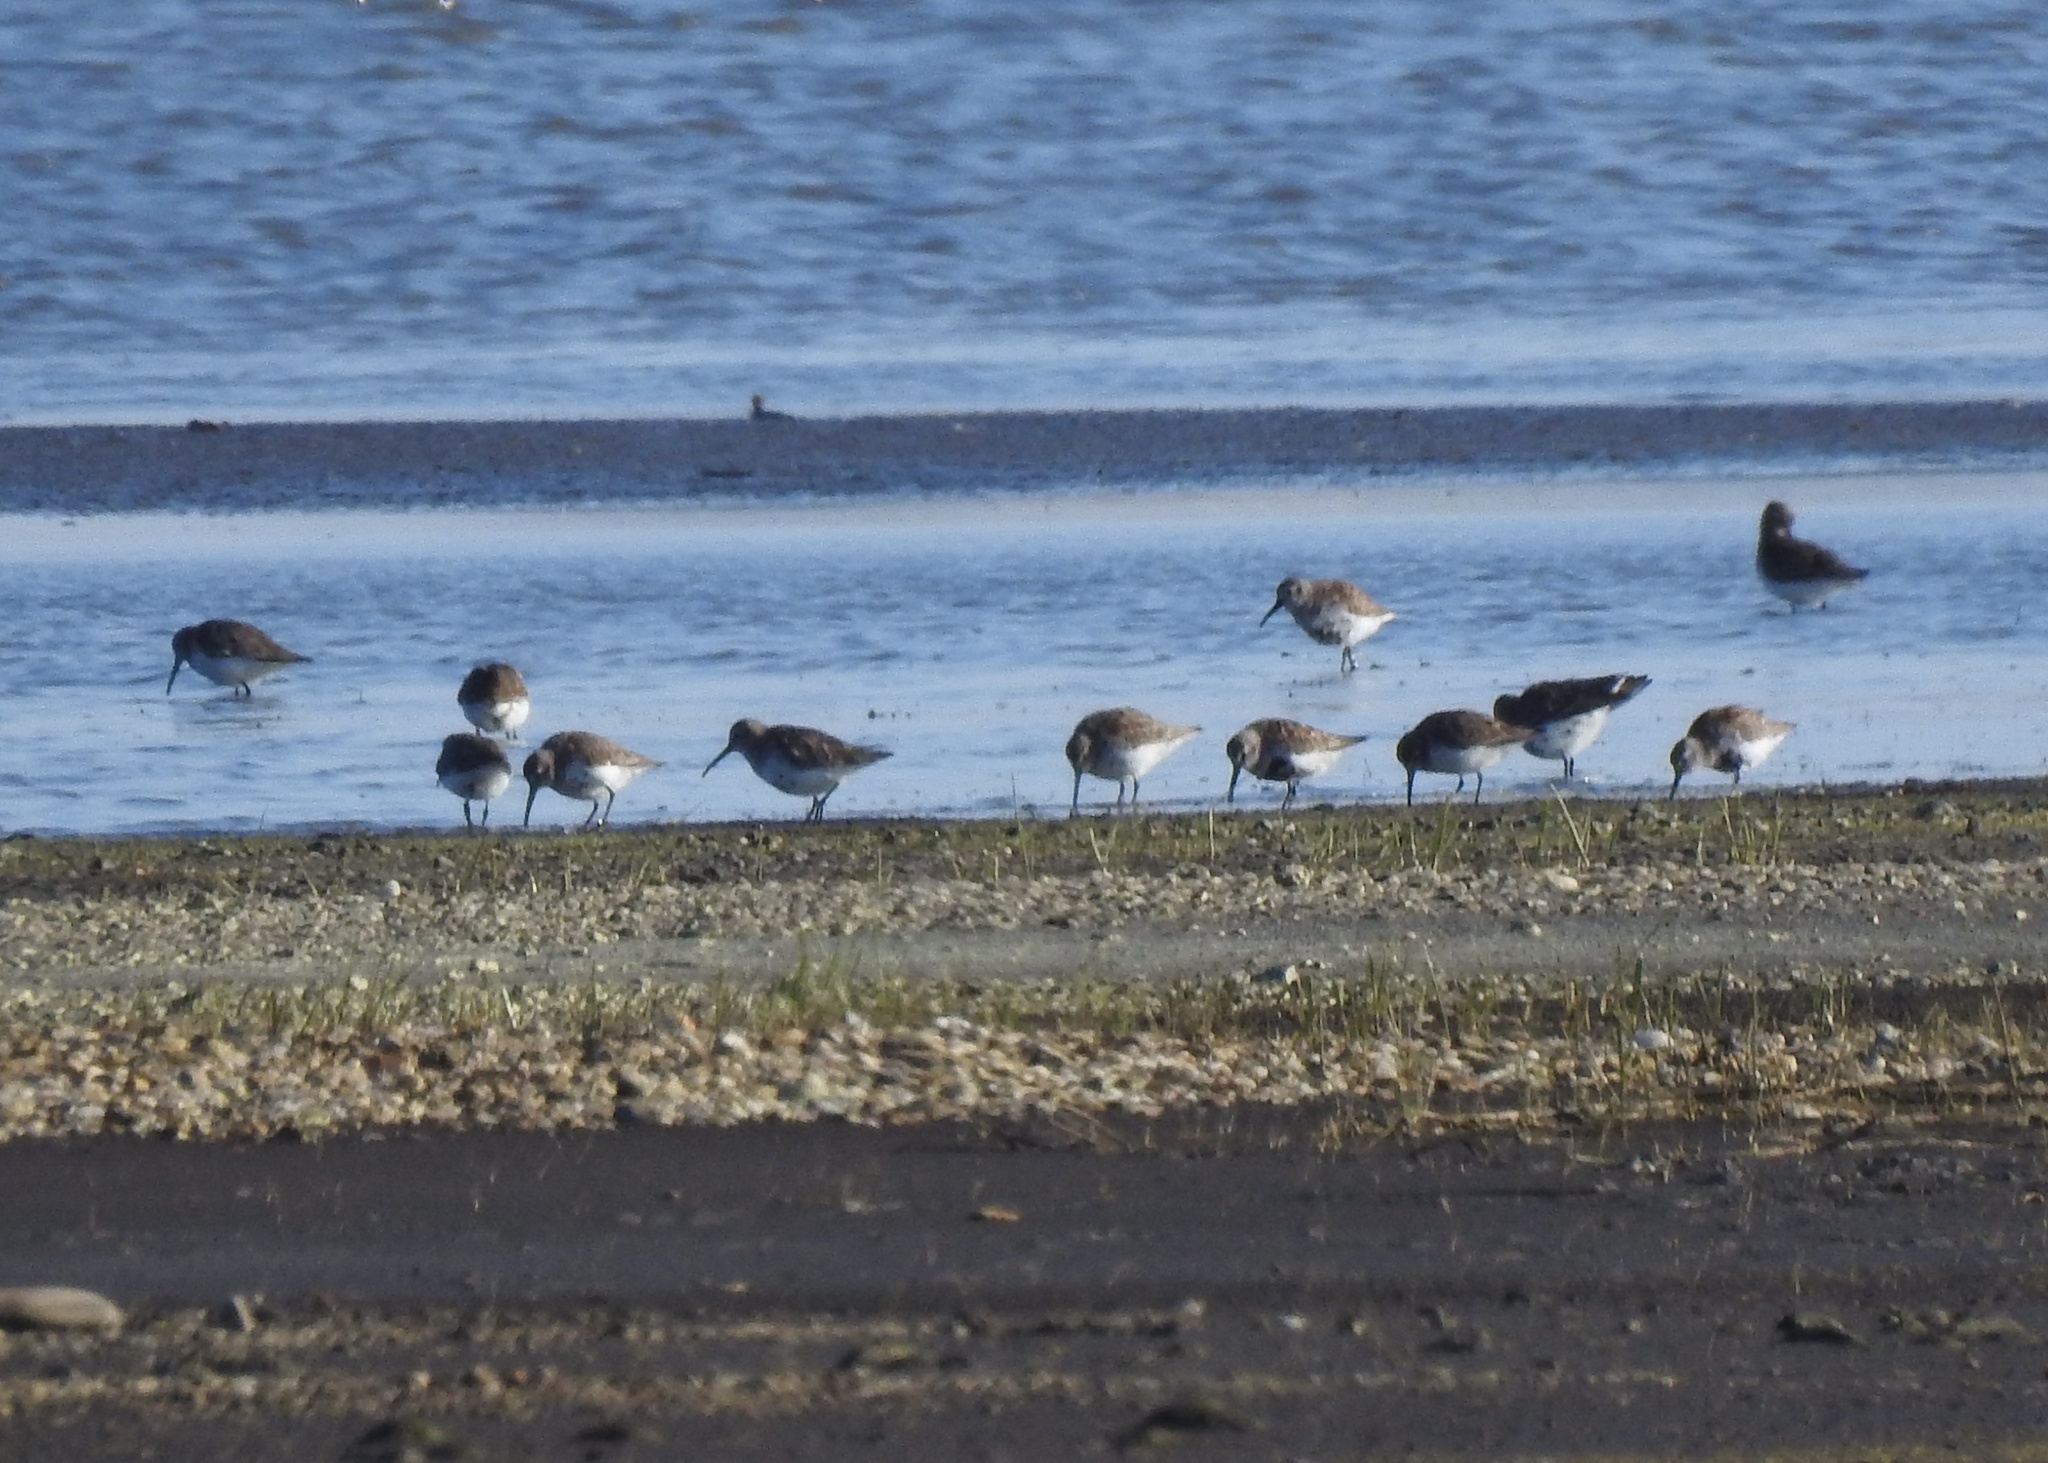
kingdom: Animalia
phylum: Chordata
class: Aves
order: Charadriiformes
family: Scolopacidae
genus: Calidris
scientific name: Calidris alpina
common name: Dunlin
